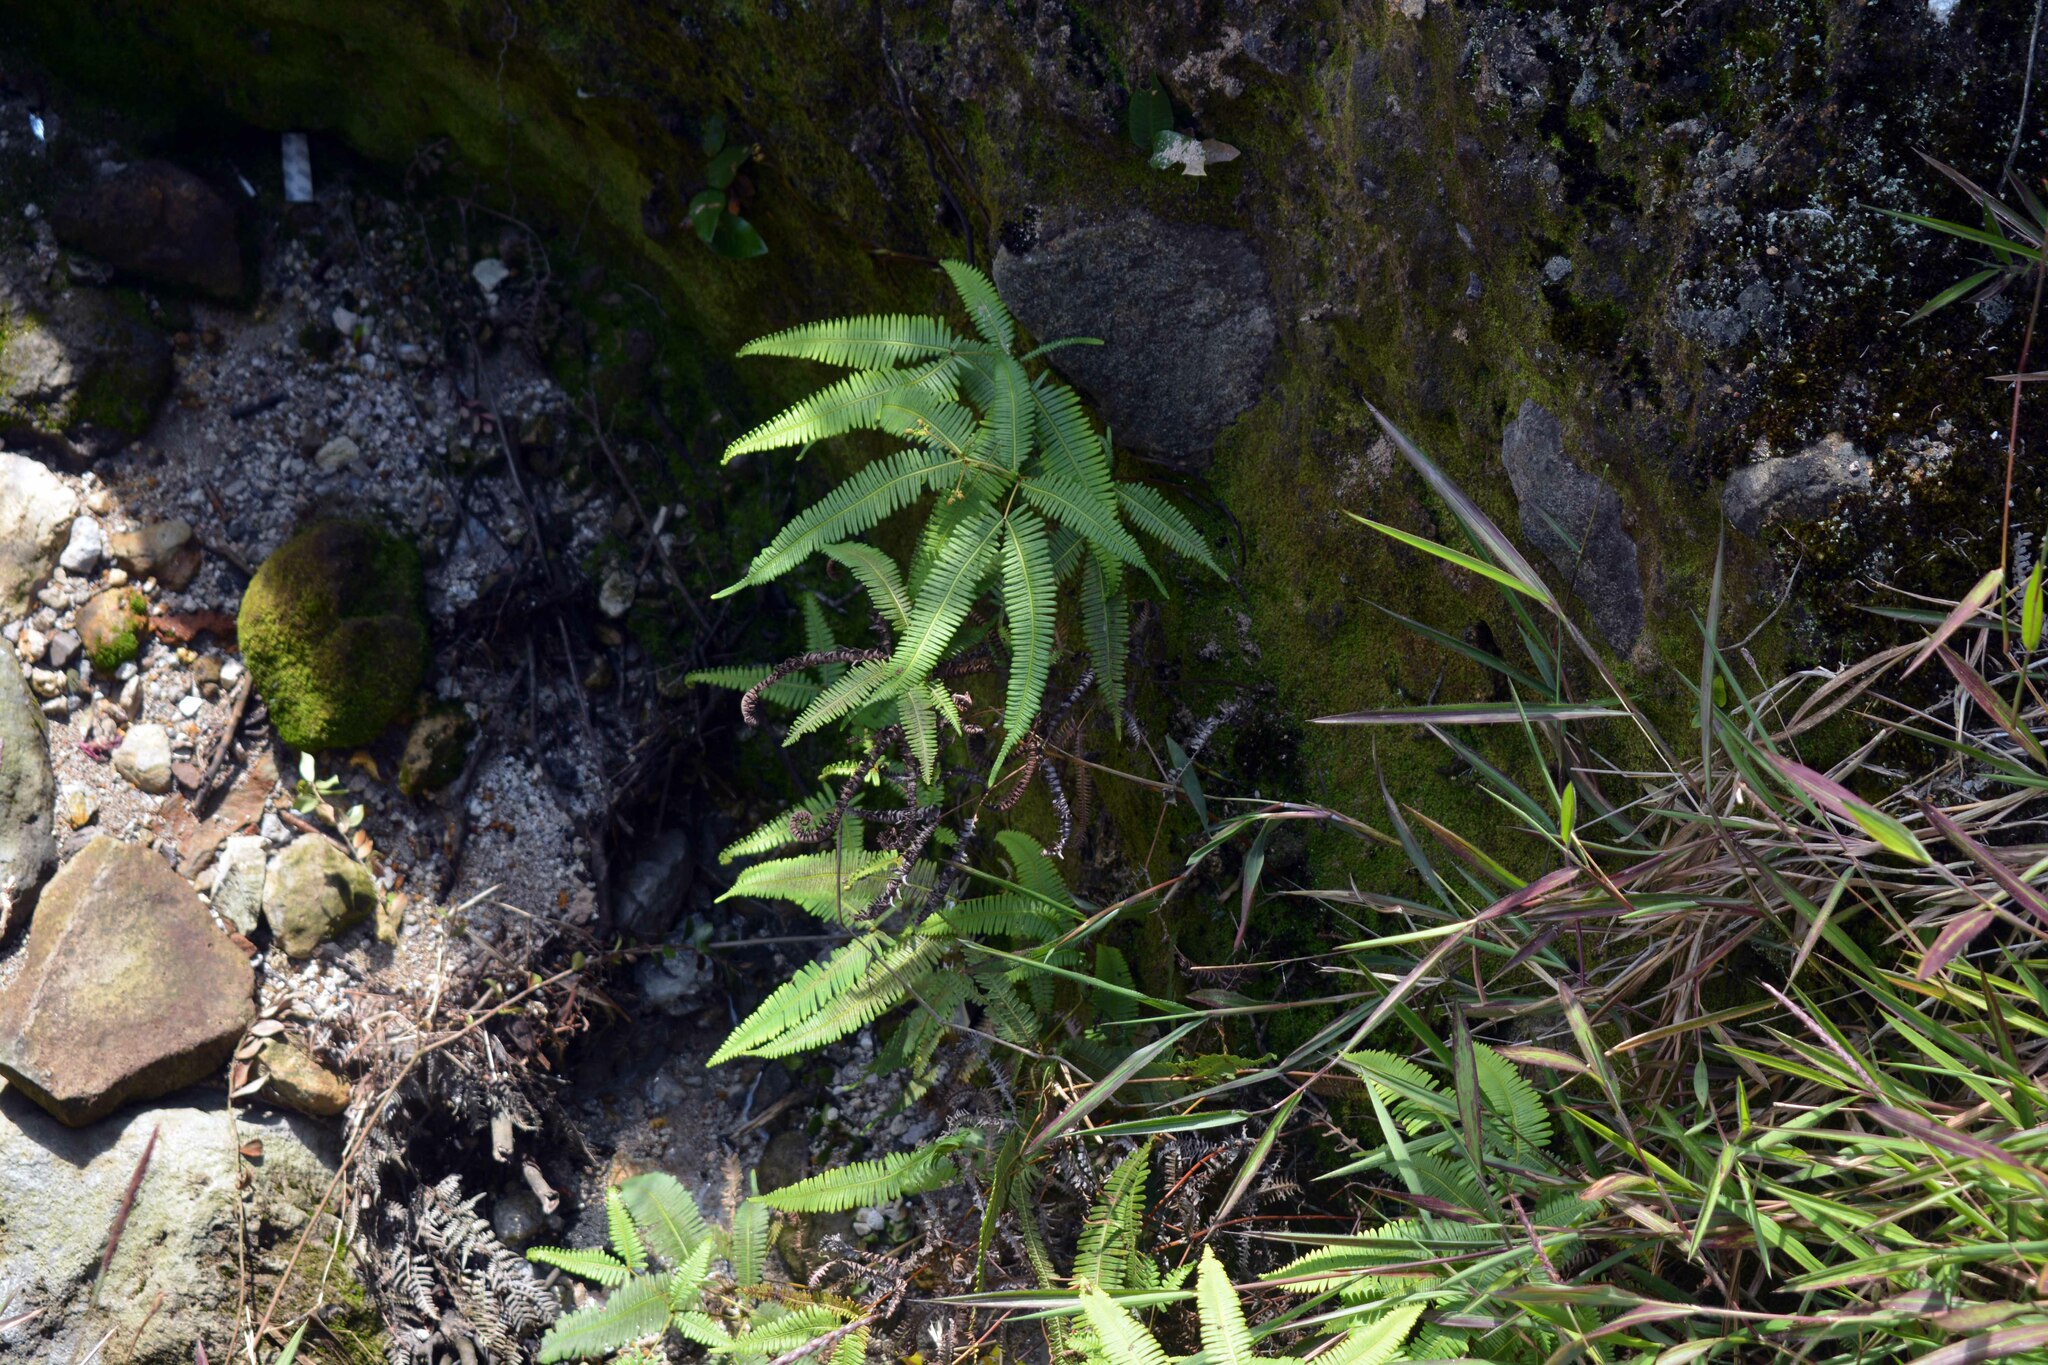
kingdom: Plantae
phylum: Tracheophyta
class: Polypodiopsida
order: Gleicheniales
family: Gleicheniaceae
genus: Dicranopteris
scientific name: Dicranopteris linearis
